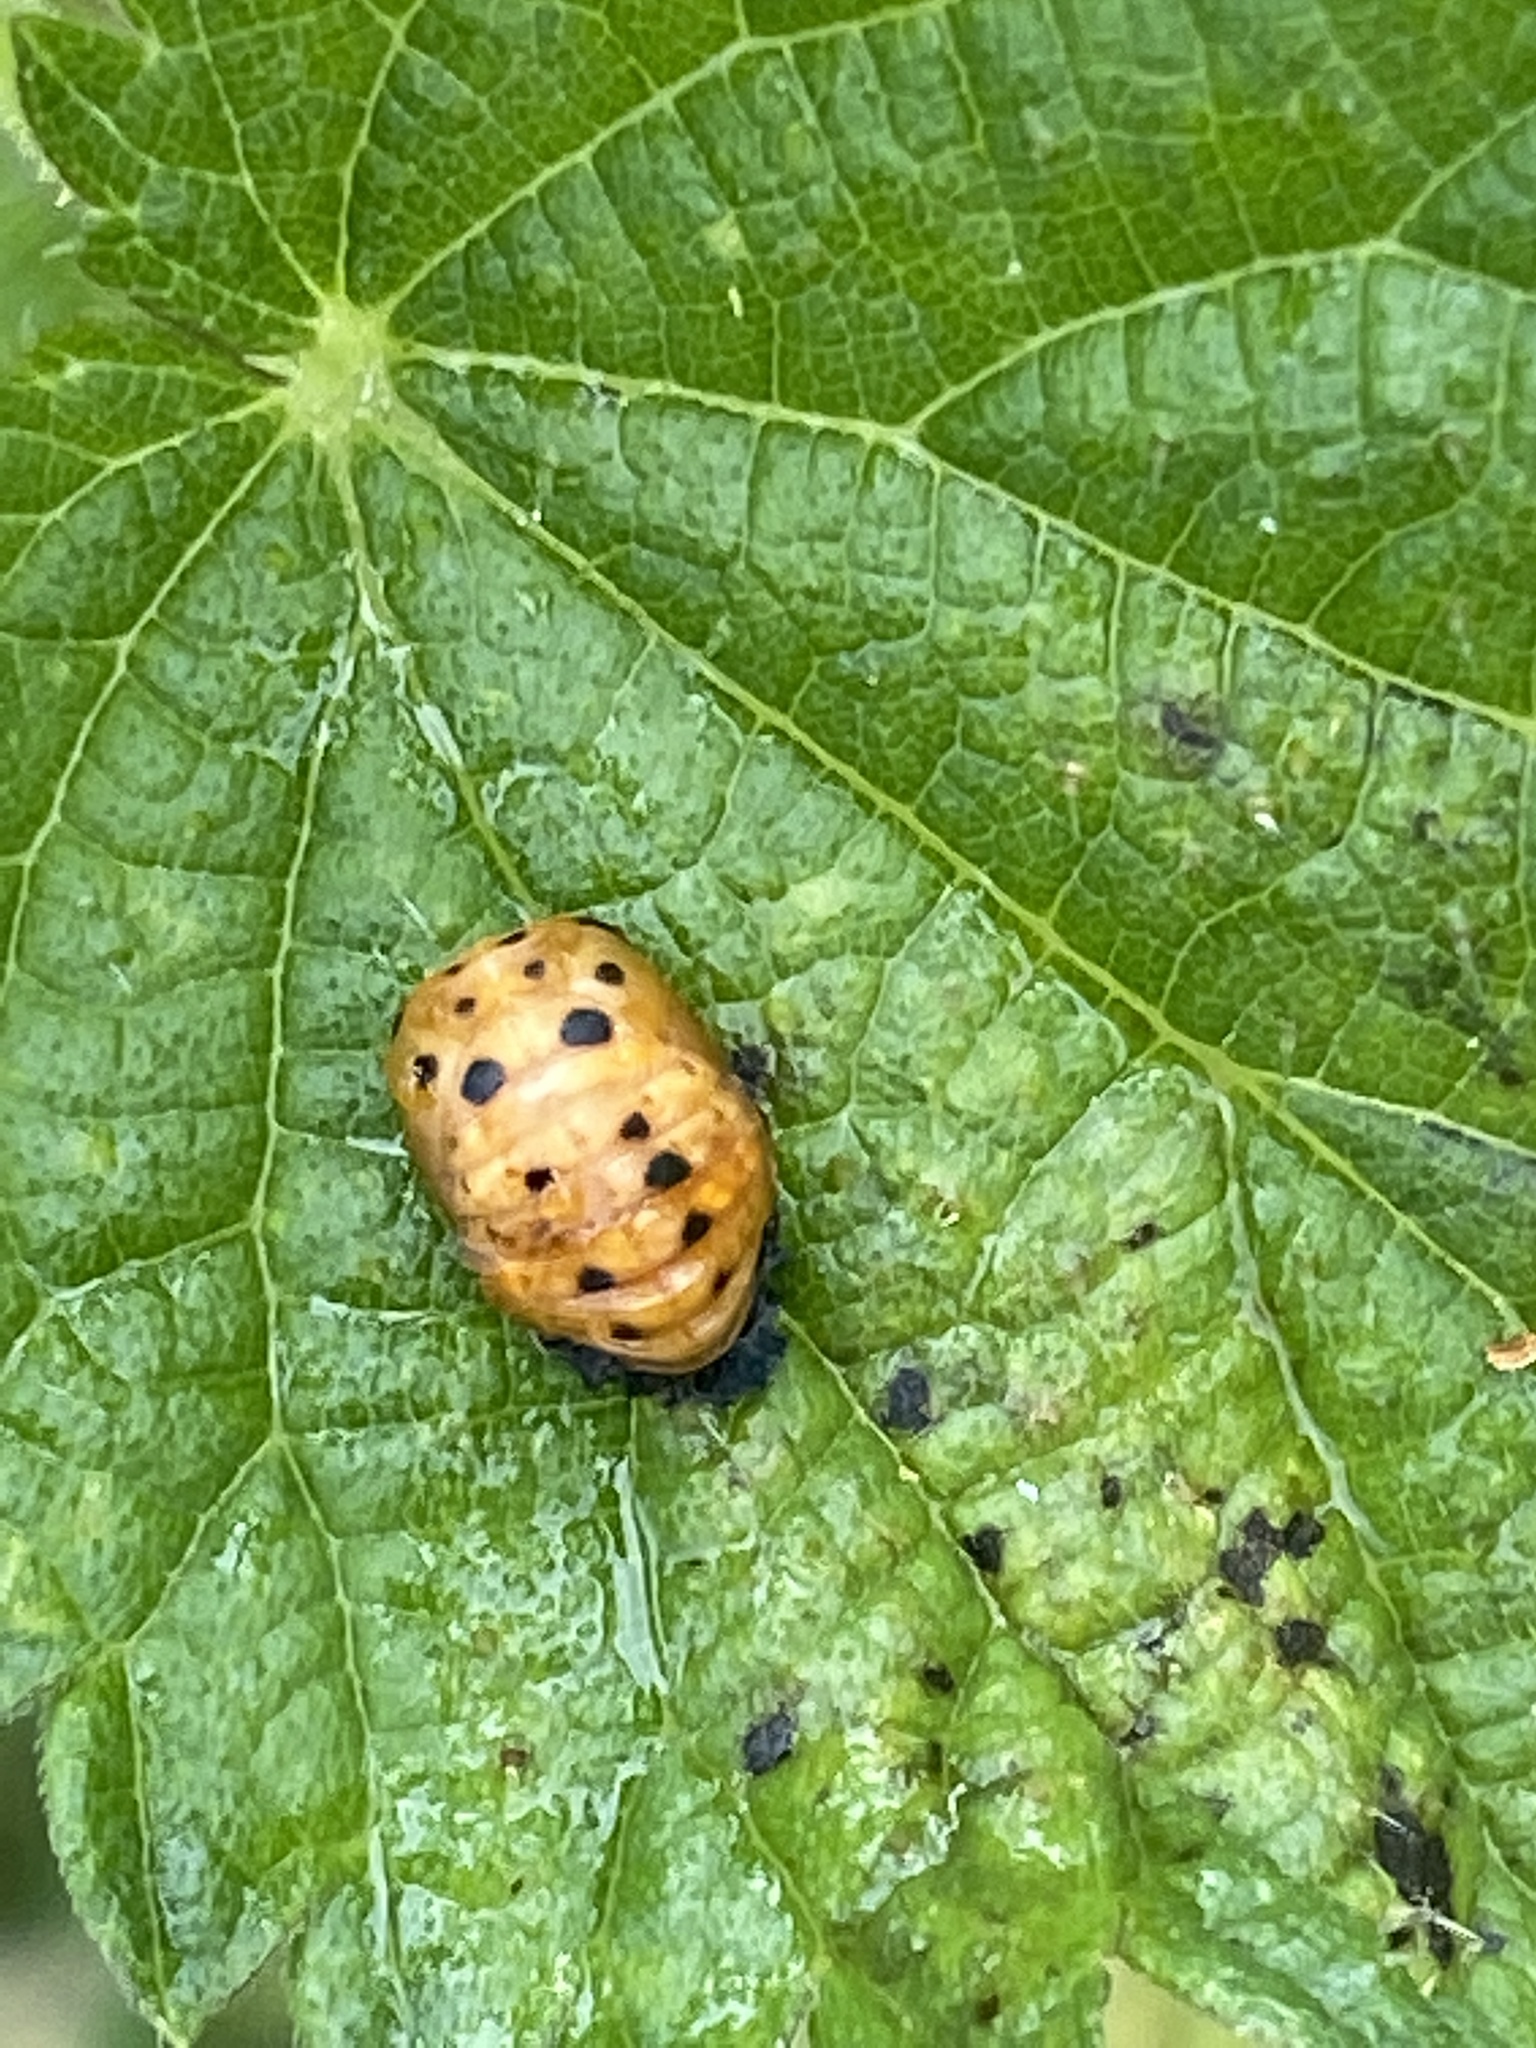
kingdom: Animalia
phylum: Arthropoda
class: Insecta
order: Coleoptera
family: Coccinellidae
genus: Coccinella
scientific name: Coccinella septempunctata
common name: Sevenspotted lady beetle
